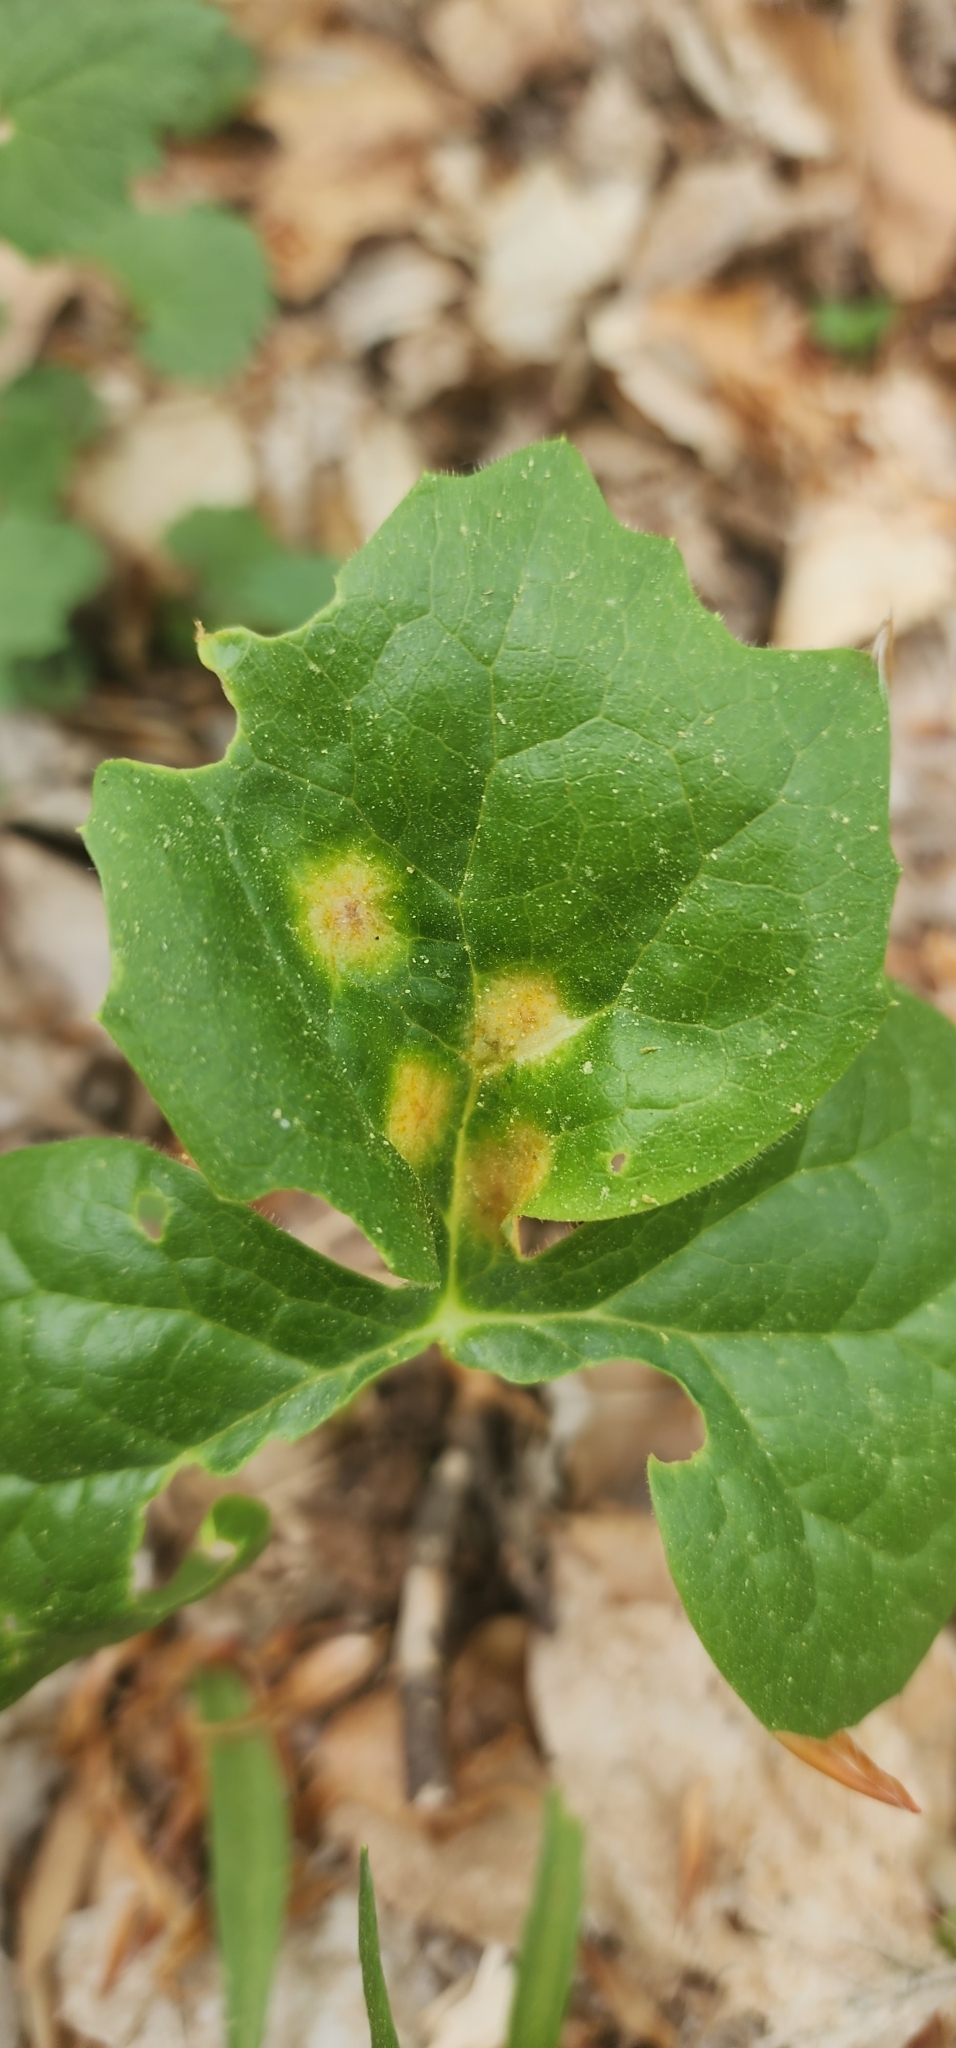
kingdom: Fungi
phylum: Basidiomycota
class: Pucciniomycetes
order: Pucciniales
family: Pucciniaceae
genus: Puccinia
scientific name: Puccinia podophylli
